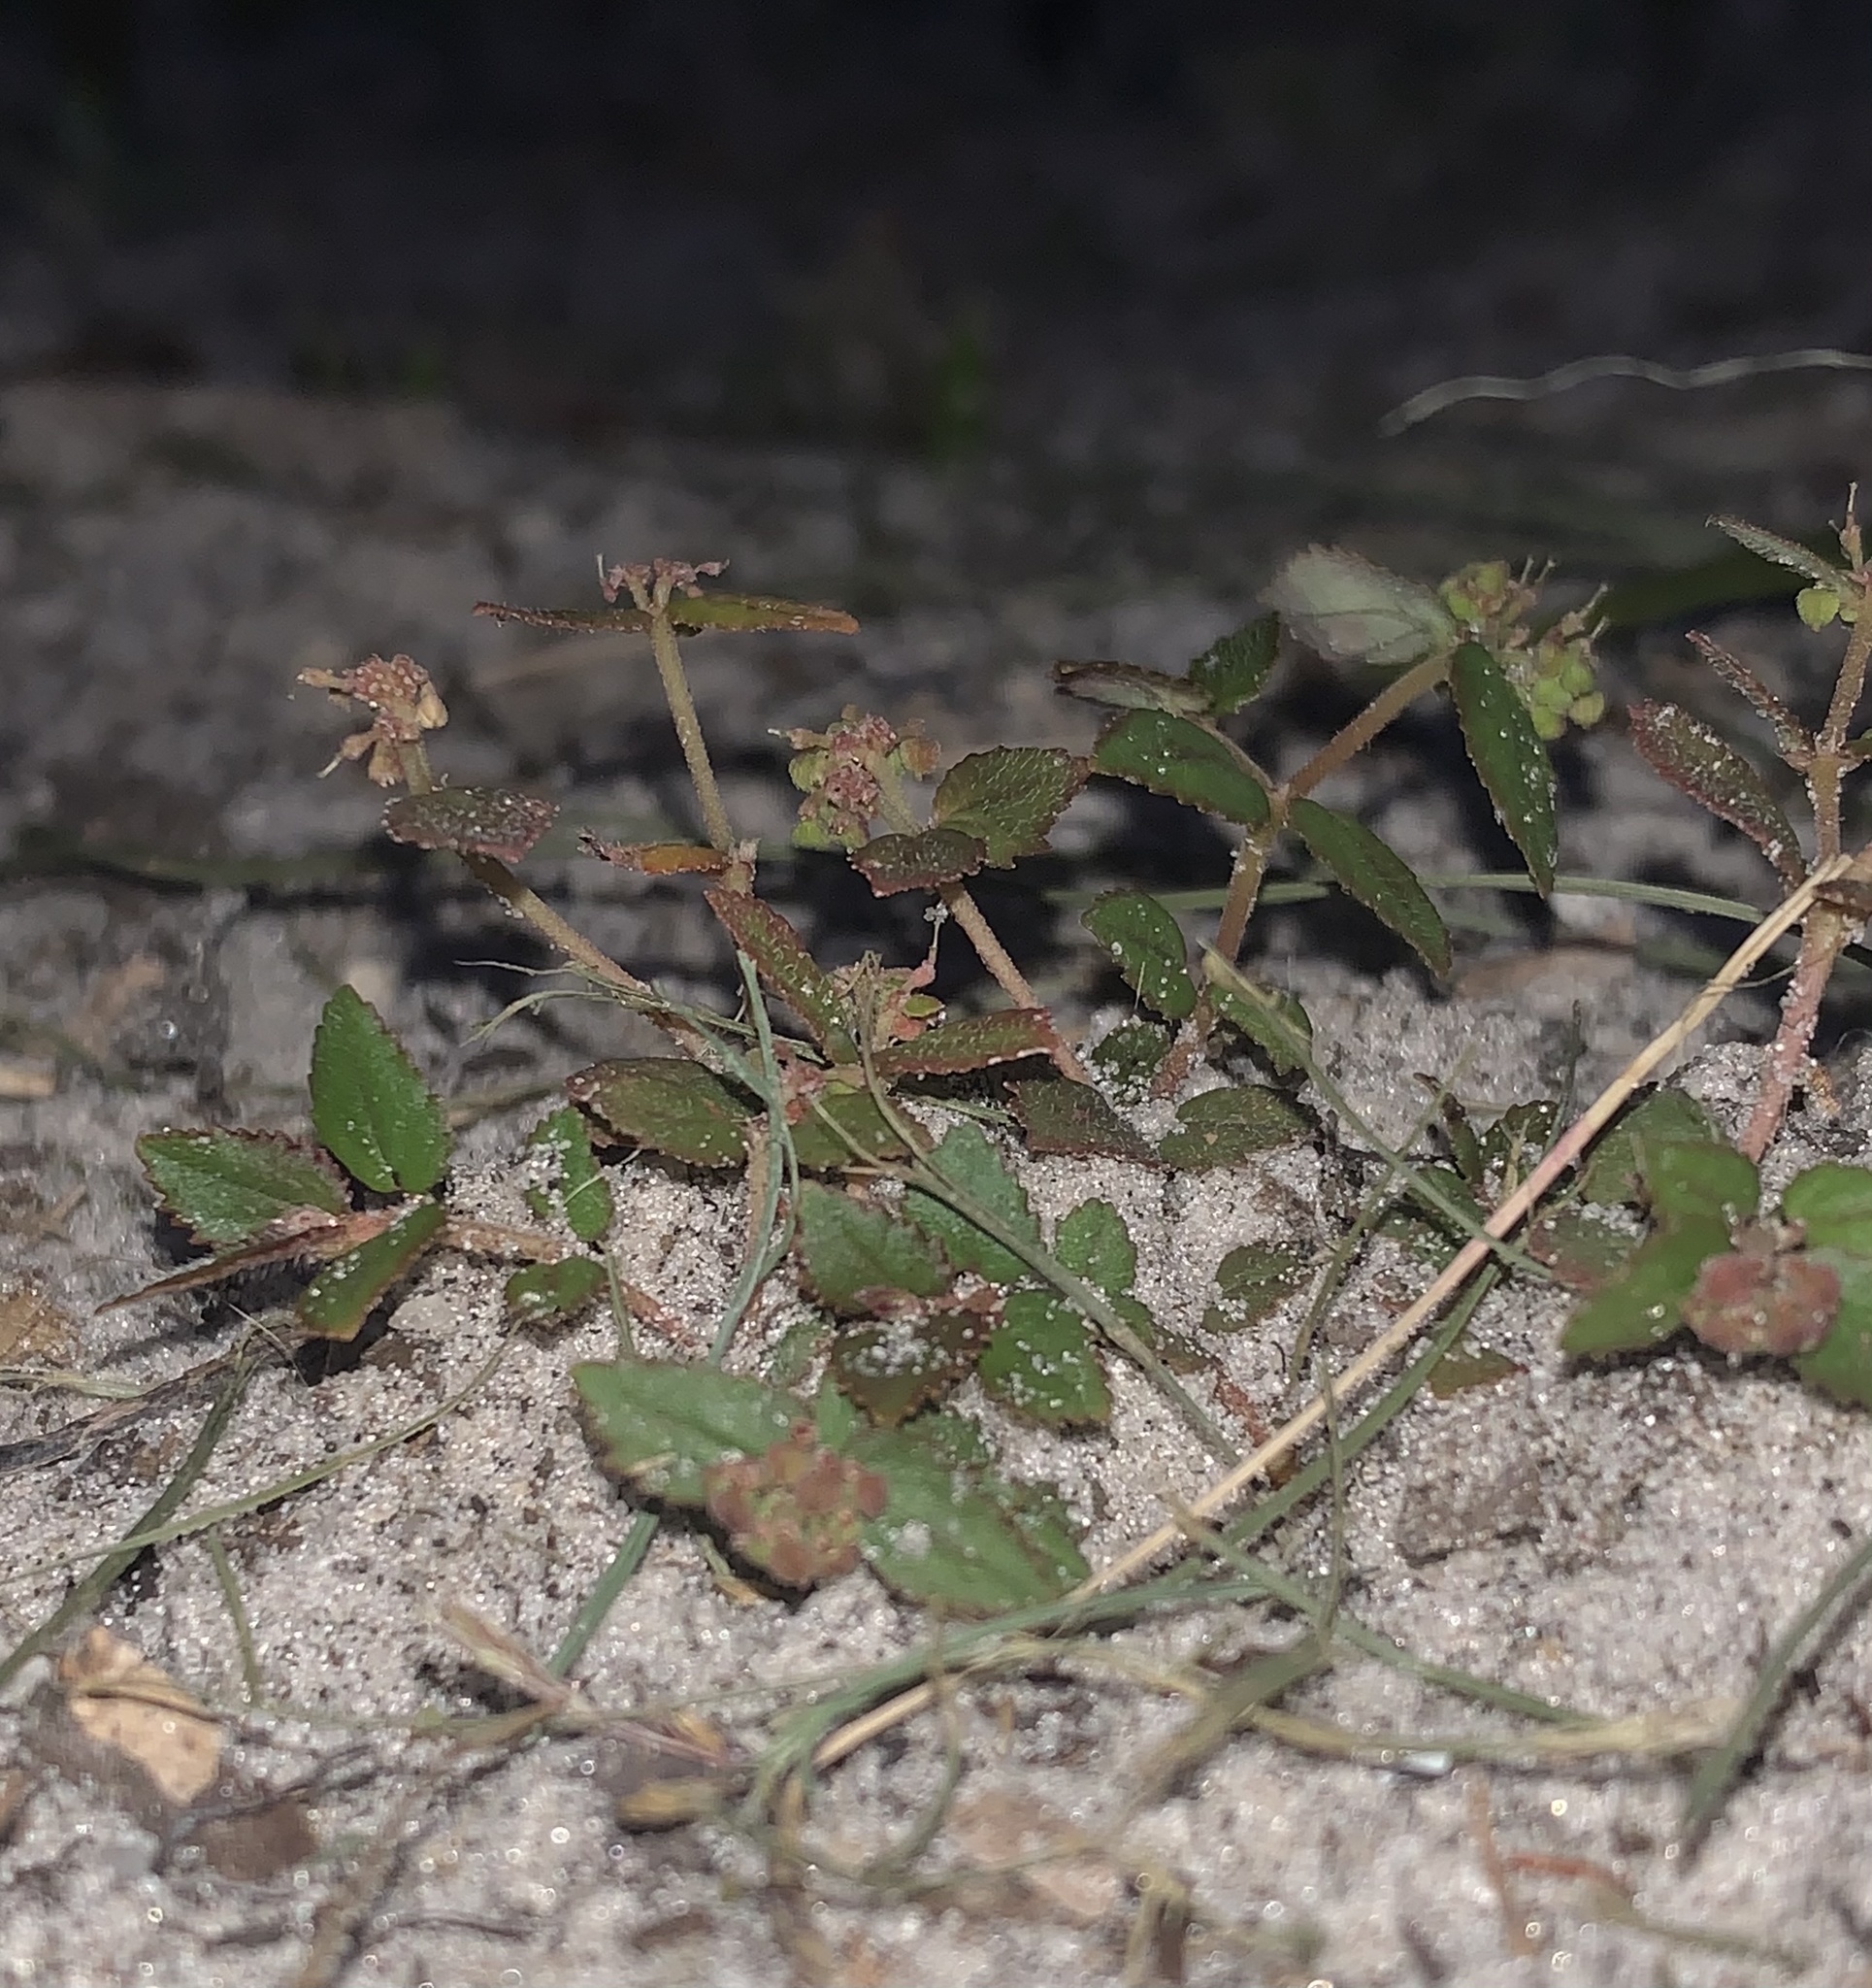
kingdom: Plantae
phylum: Tracheophyta
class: Magnoliopsida
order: Malpighiales
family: Euphorbiaceae
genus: Euphorbia
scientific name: Euphorbia ophthalmica
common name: Florida hammock sandmat
